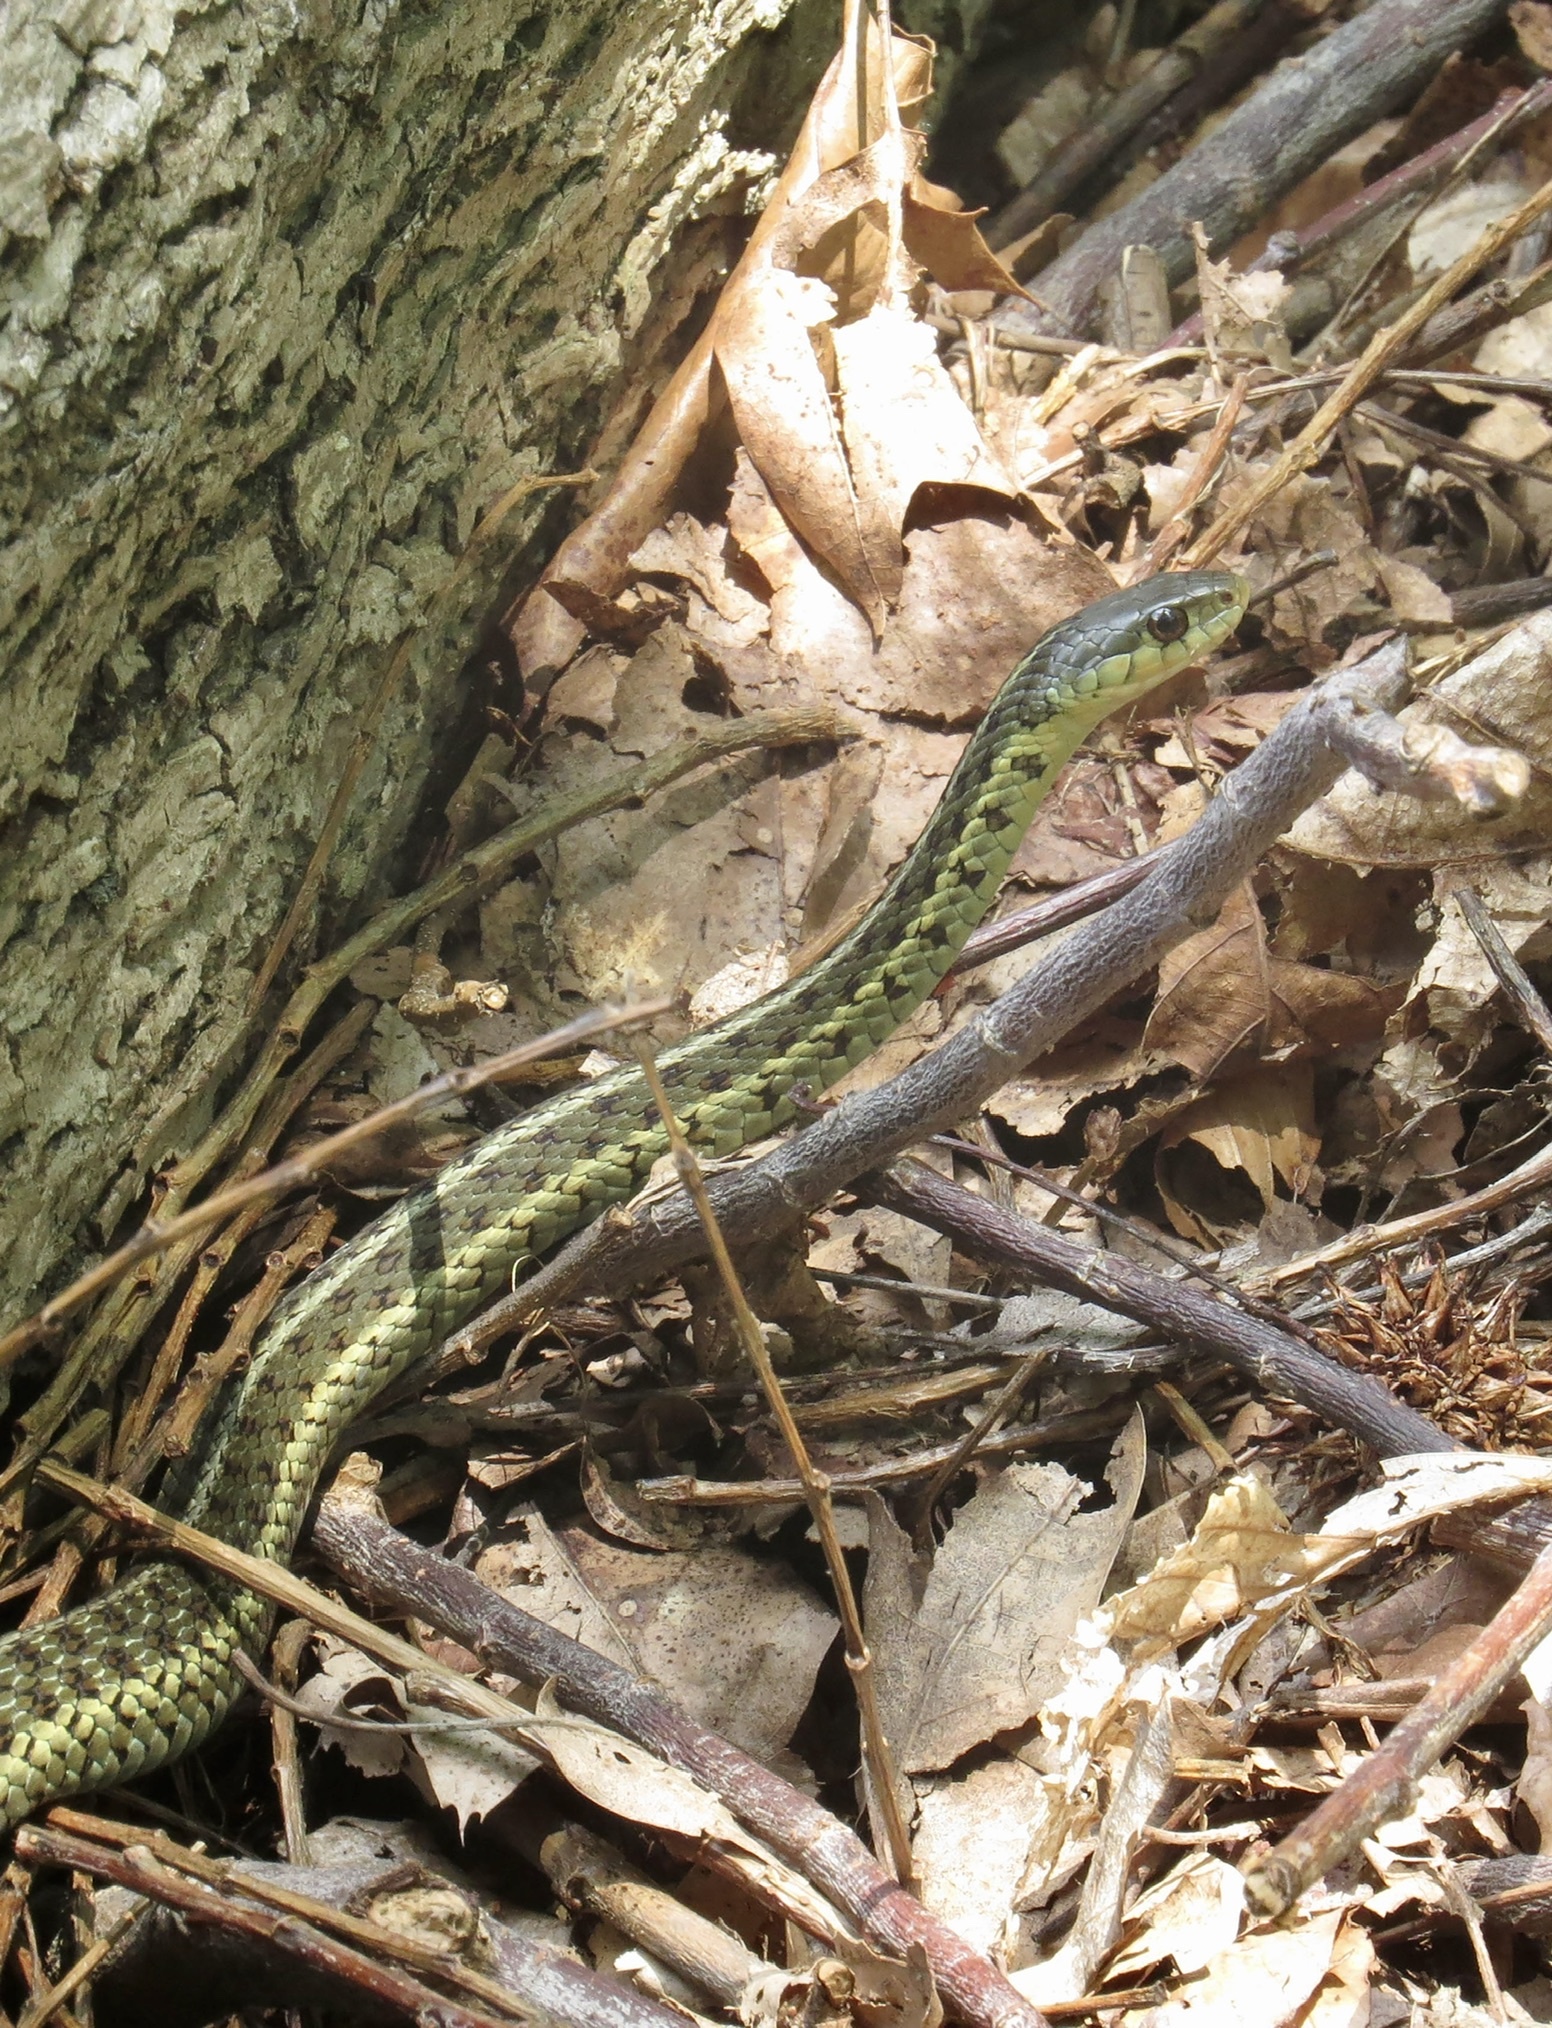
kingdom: Animalia
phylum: Chordata
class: Squamata
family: Colubridae
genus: Thamnophis
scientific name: Thamnophis sirtalis
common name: Common garter snake
